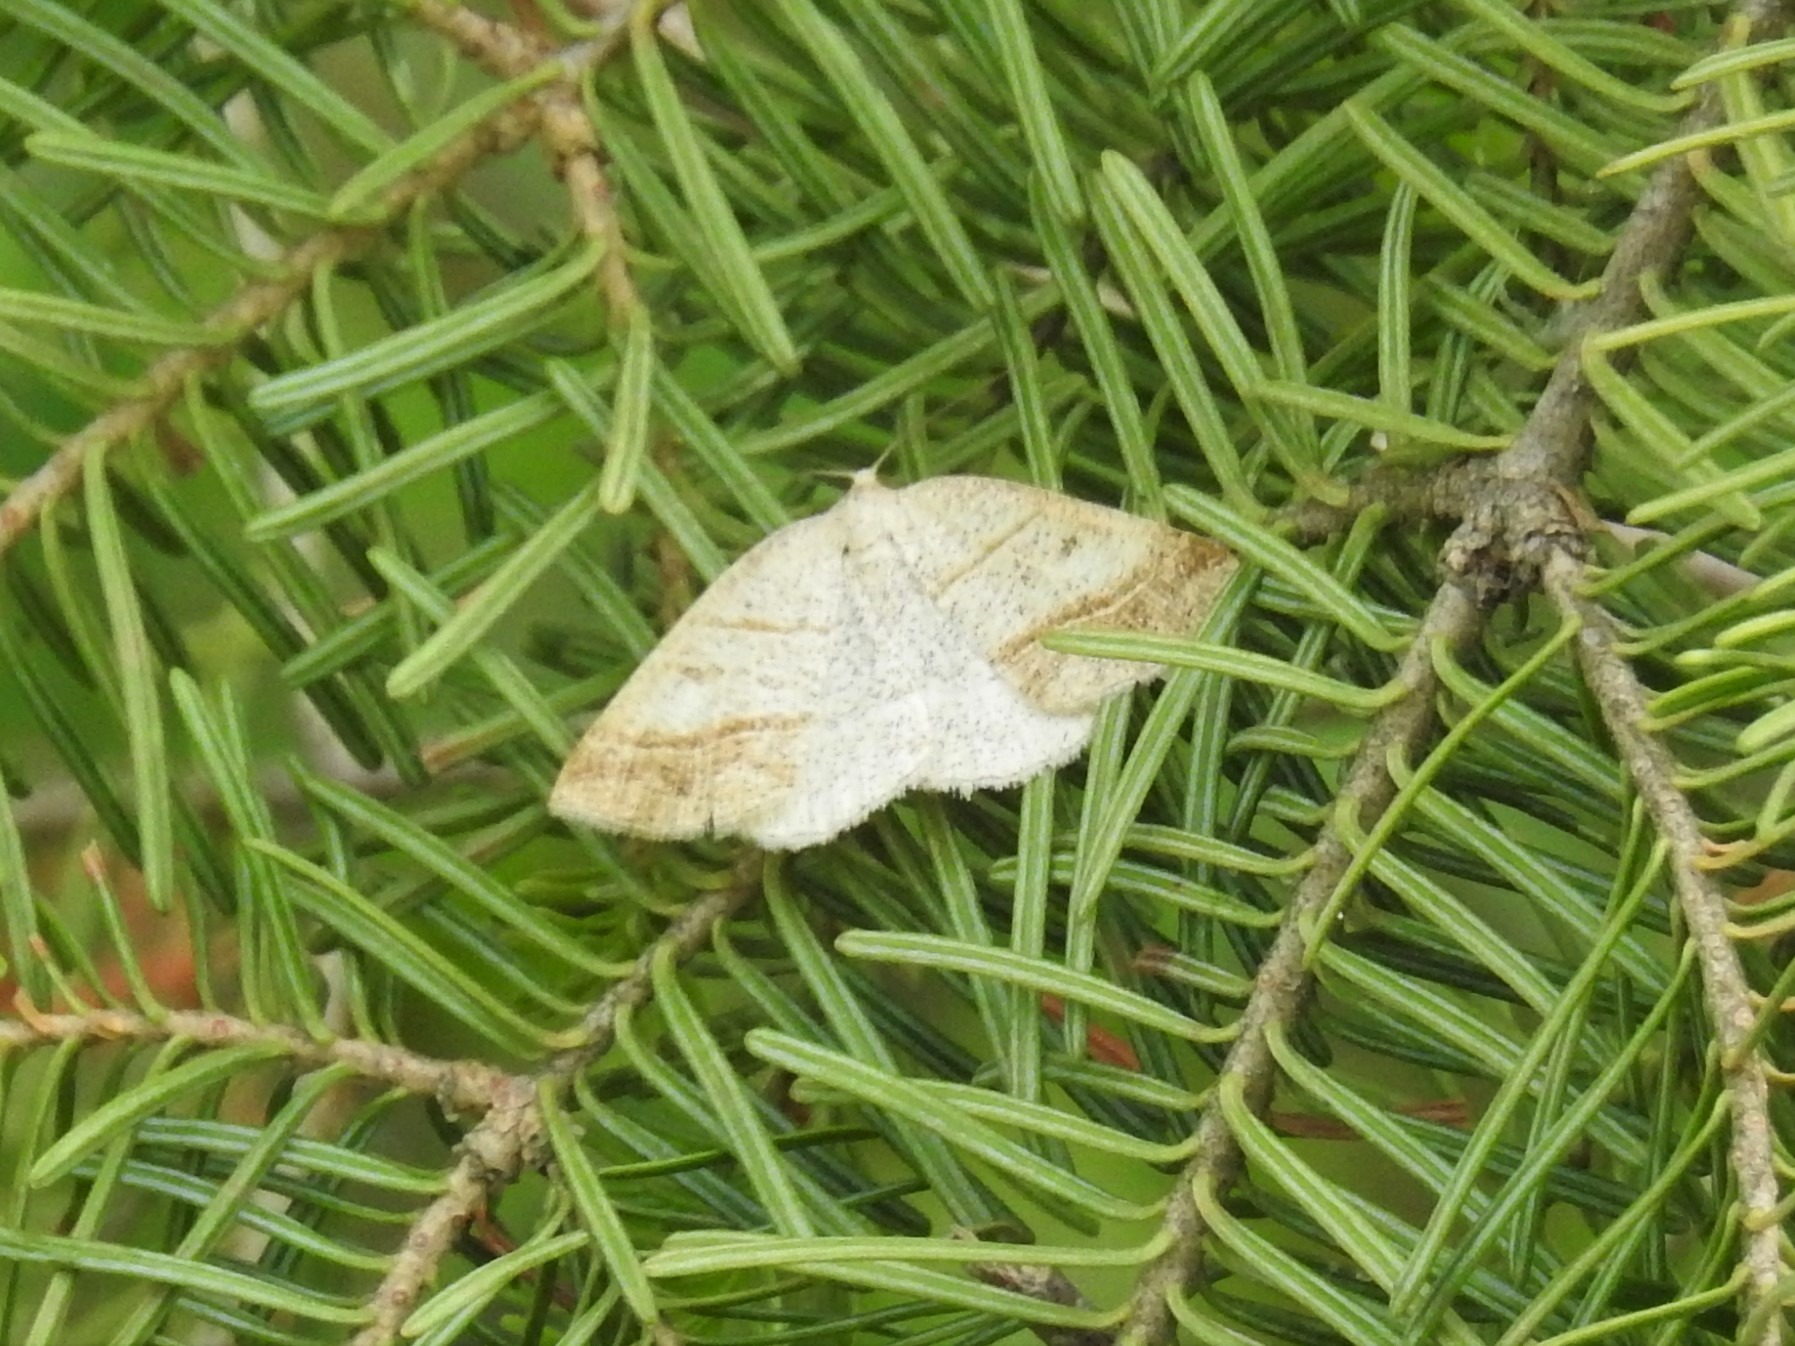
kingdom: Animalia
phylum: Arthropoda
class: Insecta
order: Lepidoptera
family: Pterophoridae
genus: Pterophorus
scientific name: Pterophorus Petrophora subaequaria
